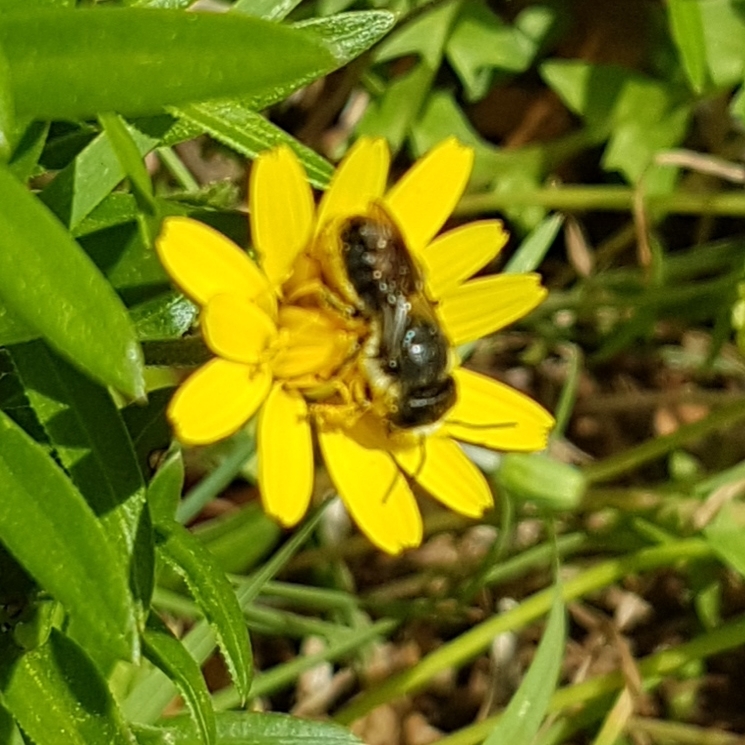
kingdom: Animalia
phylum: Arthropoda
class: Insecta
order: Hymenoptera
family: Megachilidae
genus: Osmia
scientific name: Osmia latreillei
